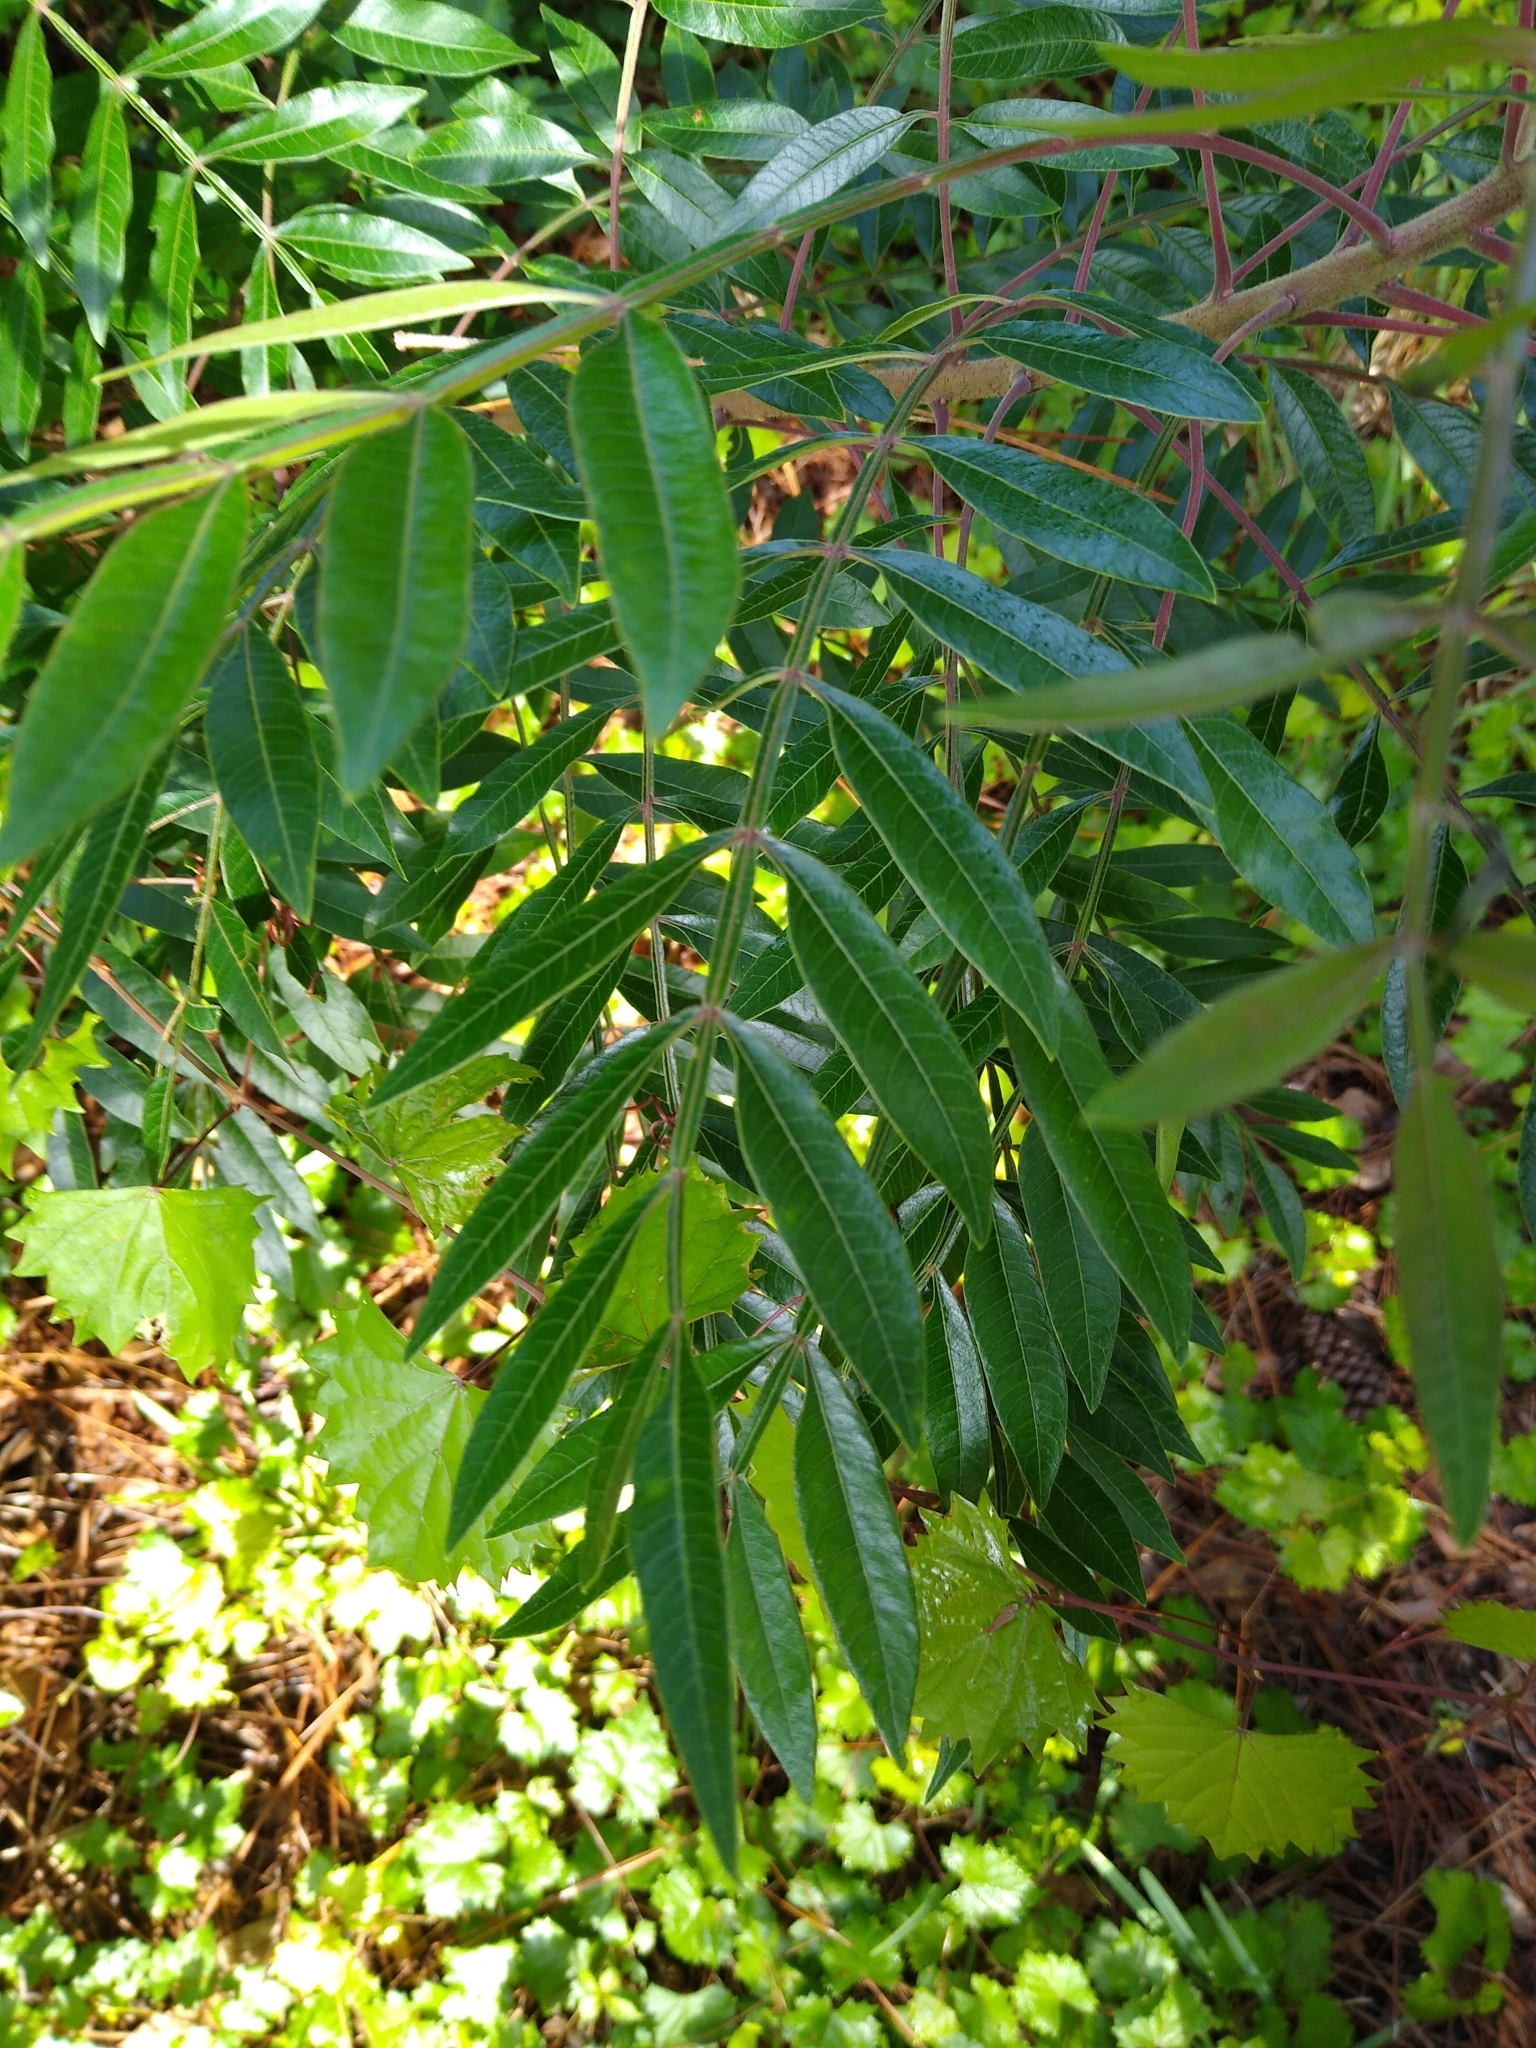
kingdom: Plantae
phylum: Tracheophyta
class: Magnoliopsida
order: Sapindales
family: Anacardiaceae
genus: Rhus
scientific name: Rhus copallina
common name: Shining sumac
